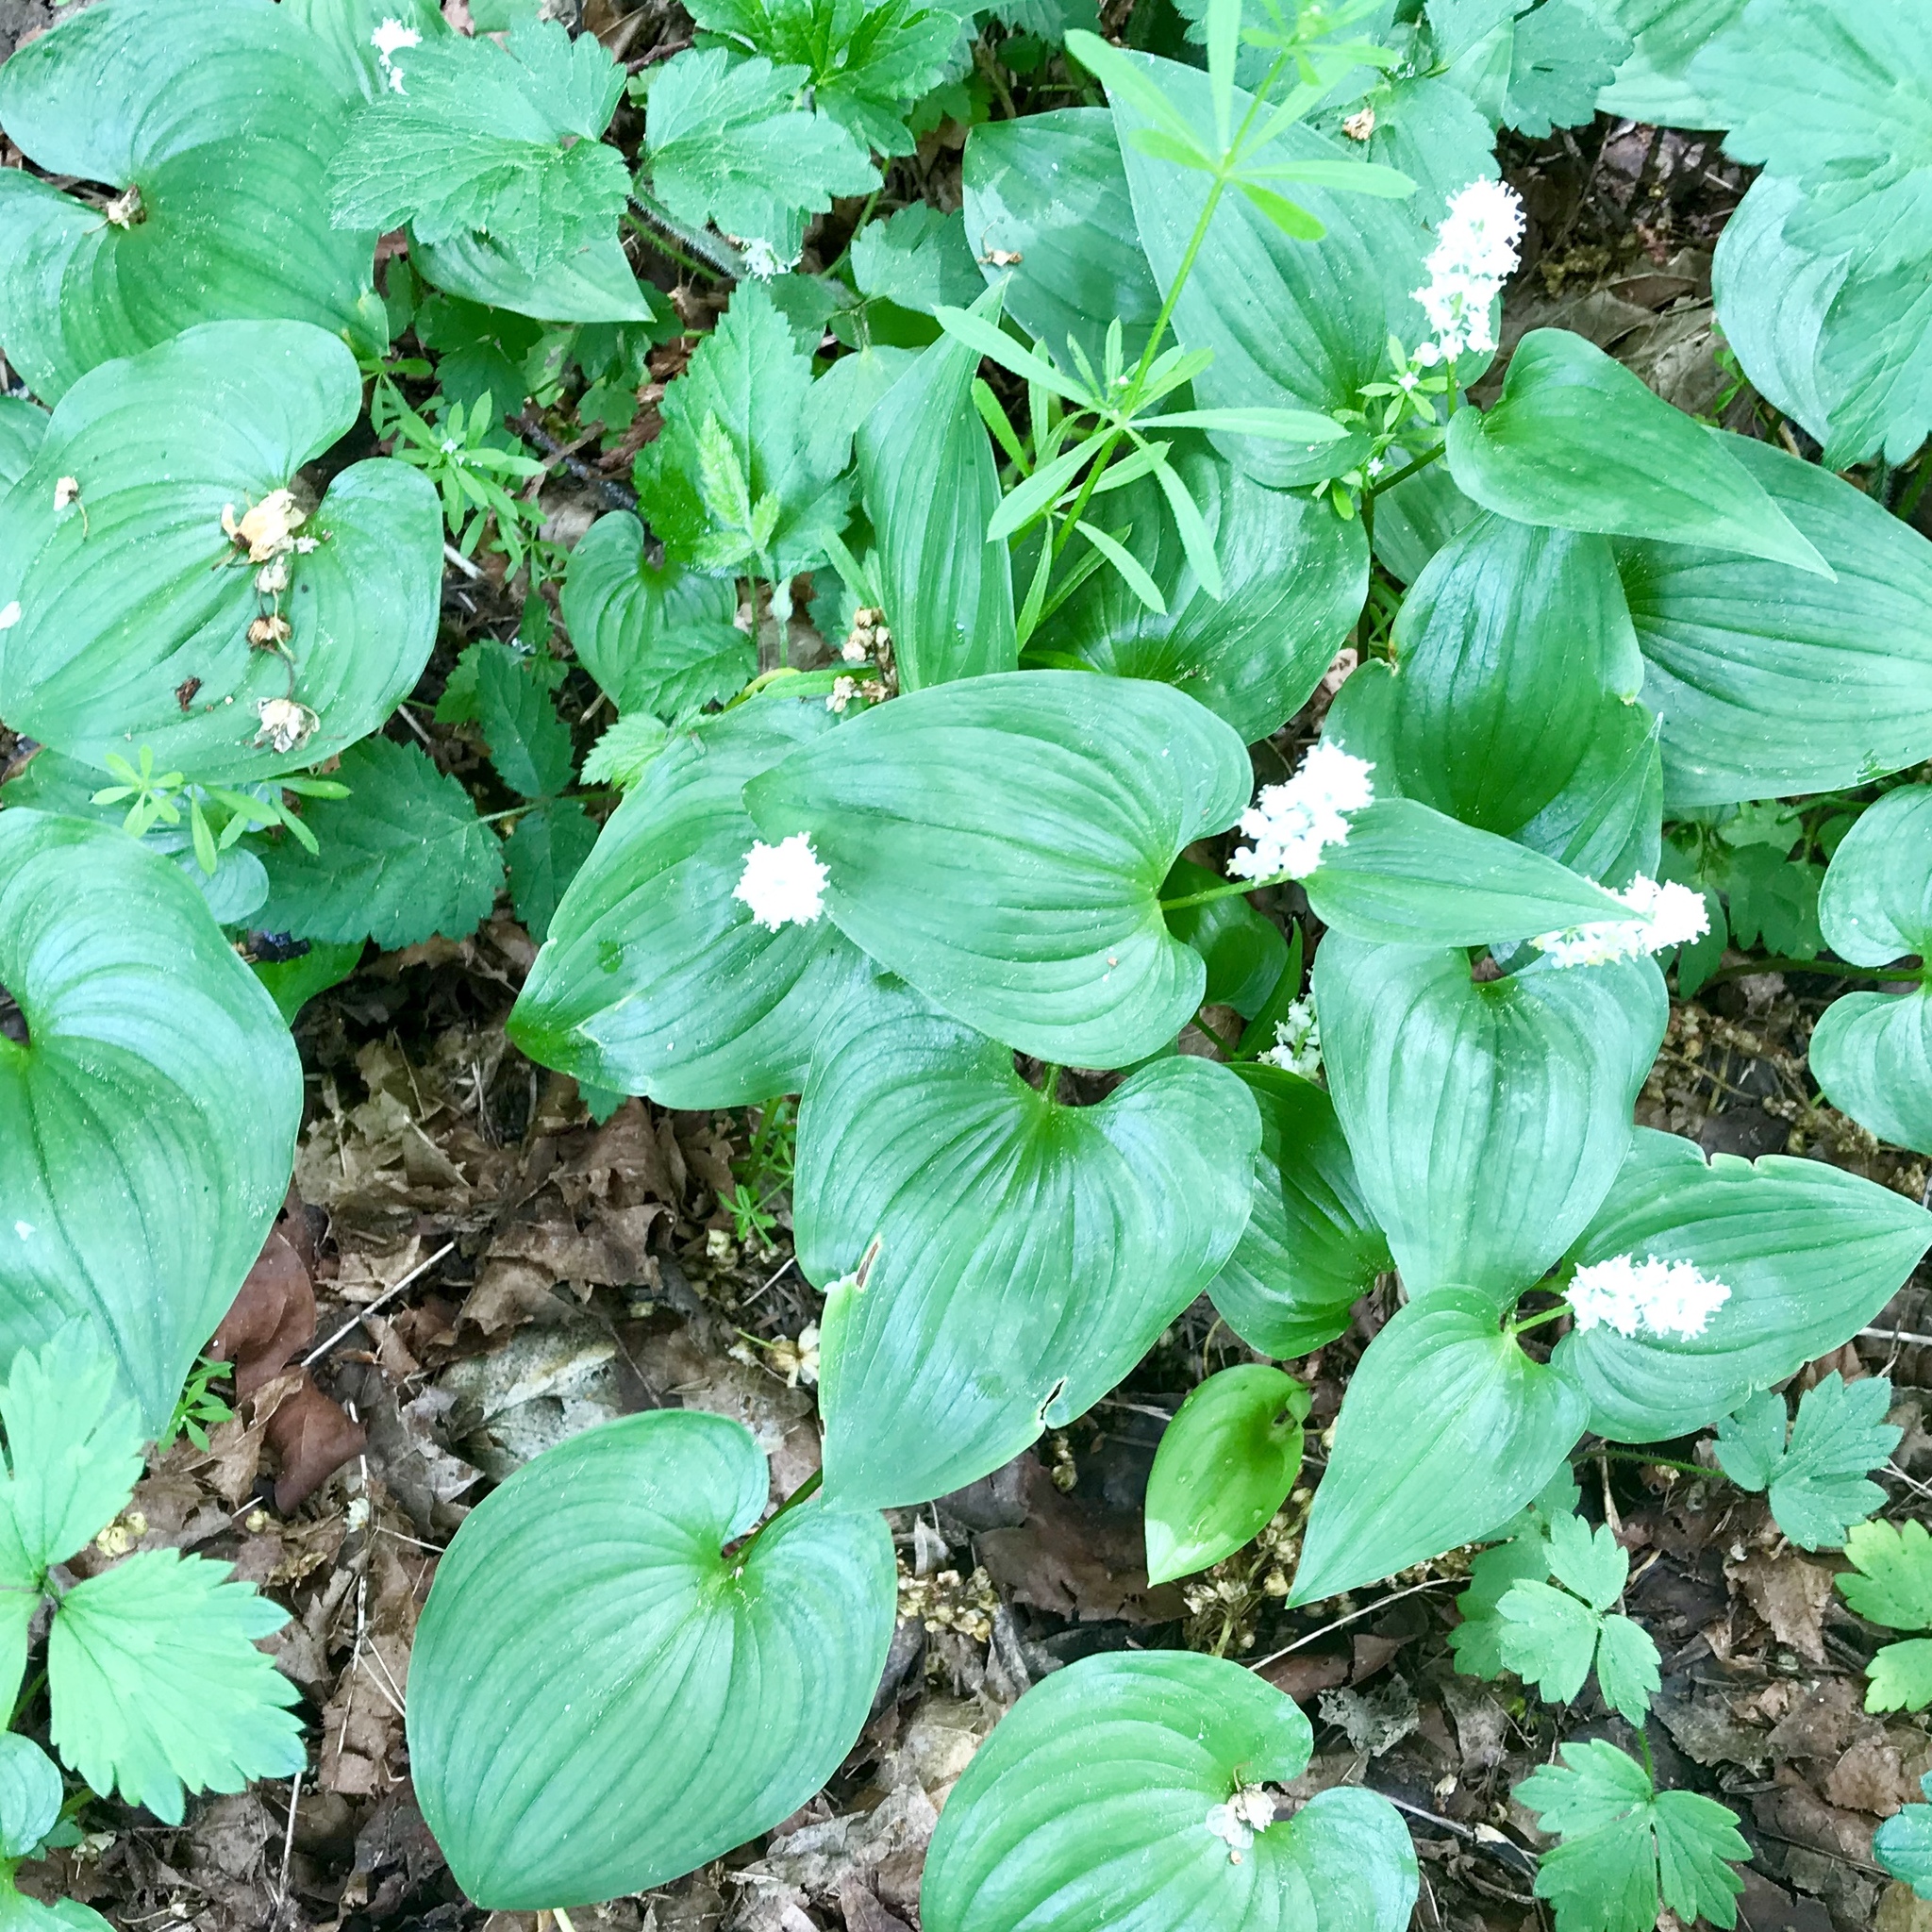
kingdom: Plantae
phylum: Tracheophyta
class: Liliopsida
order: Asparagales
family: Asparagaceae
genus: Maianthemum
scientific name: Maianthemum dilatatum
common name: False lily-of-the-valley
